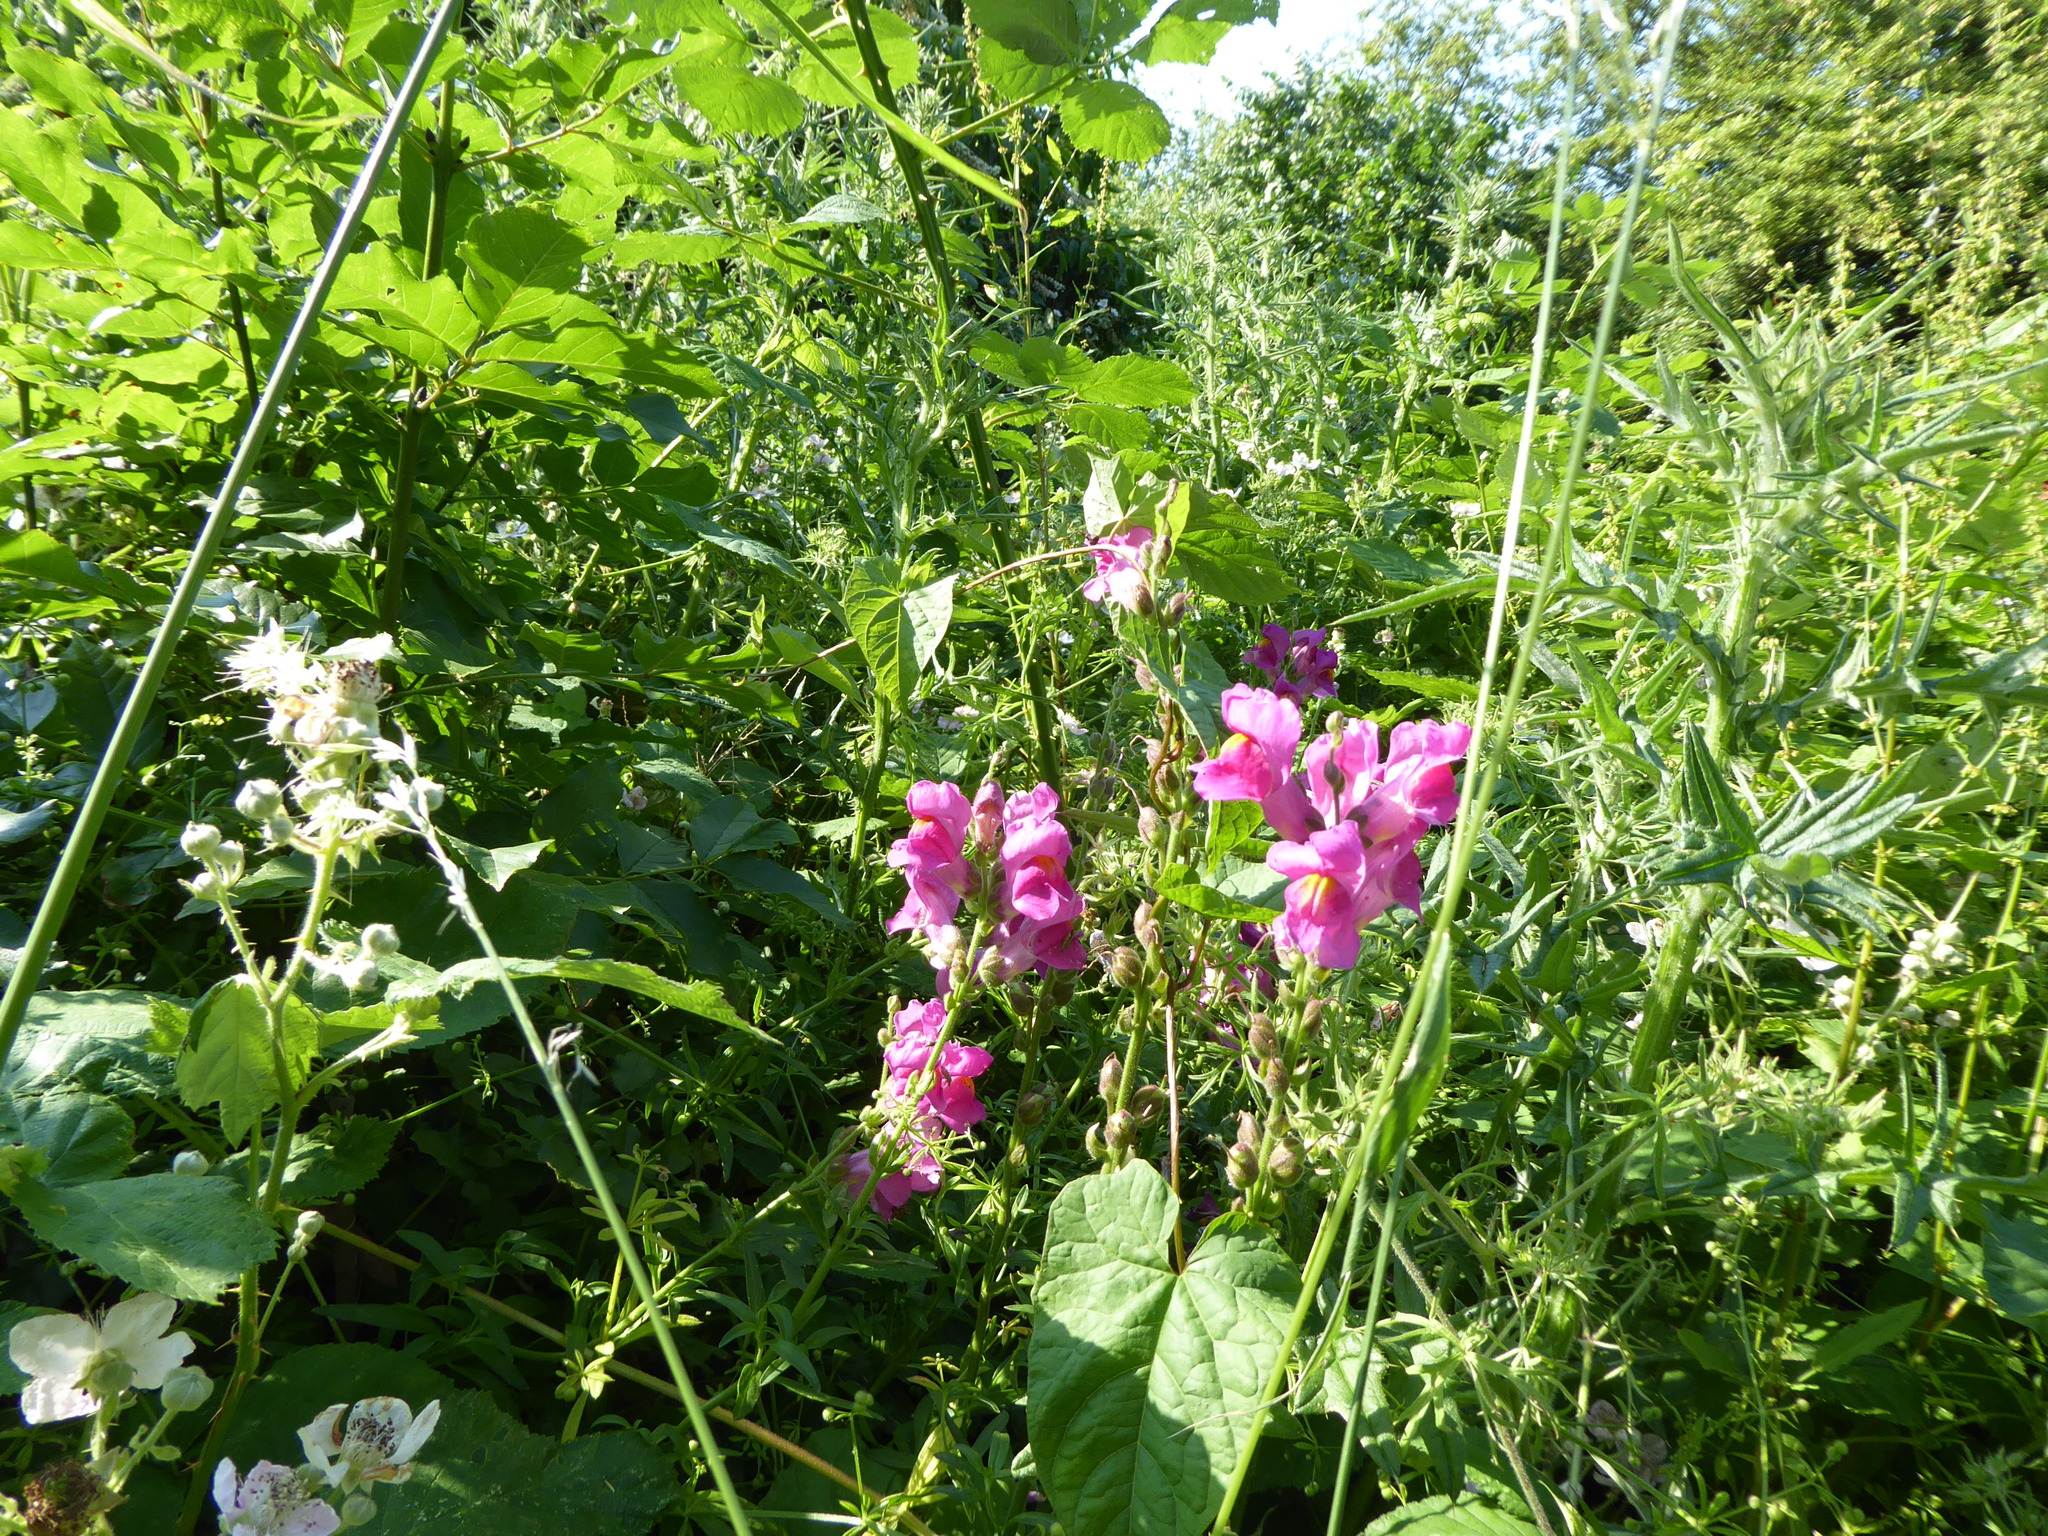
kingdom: Plantae
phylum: Tracheophyta
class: Magnoliopsida
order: Lamiales
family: Plantaginaceae
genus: Antirrhinum
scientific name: Antirrhinum majus
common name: Snapdragon
